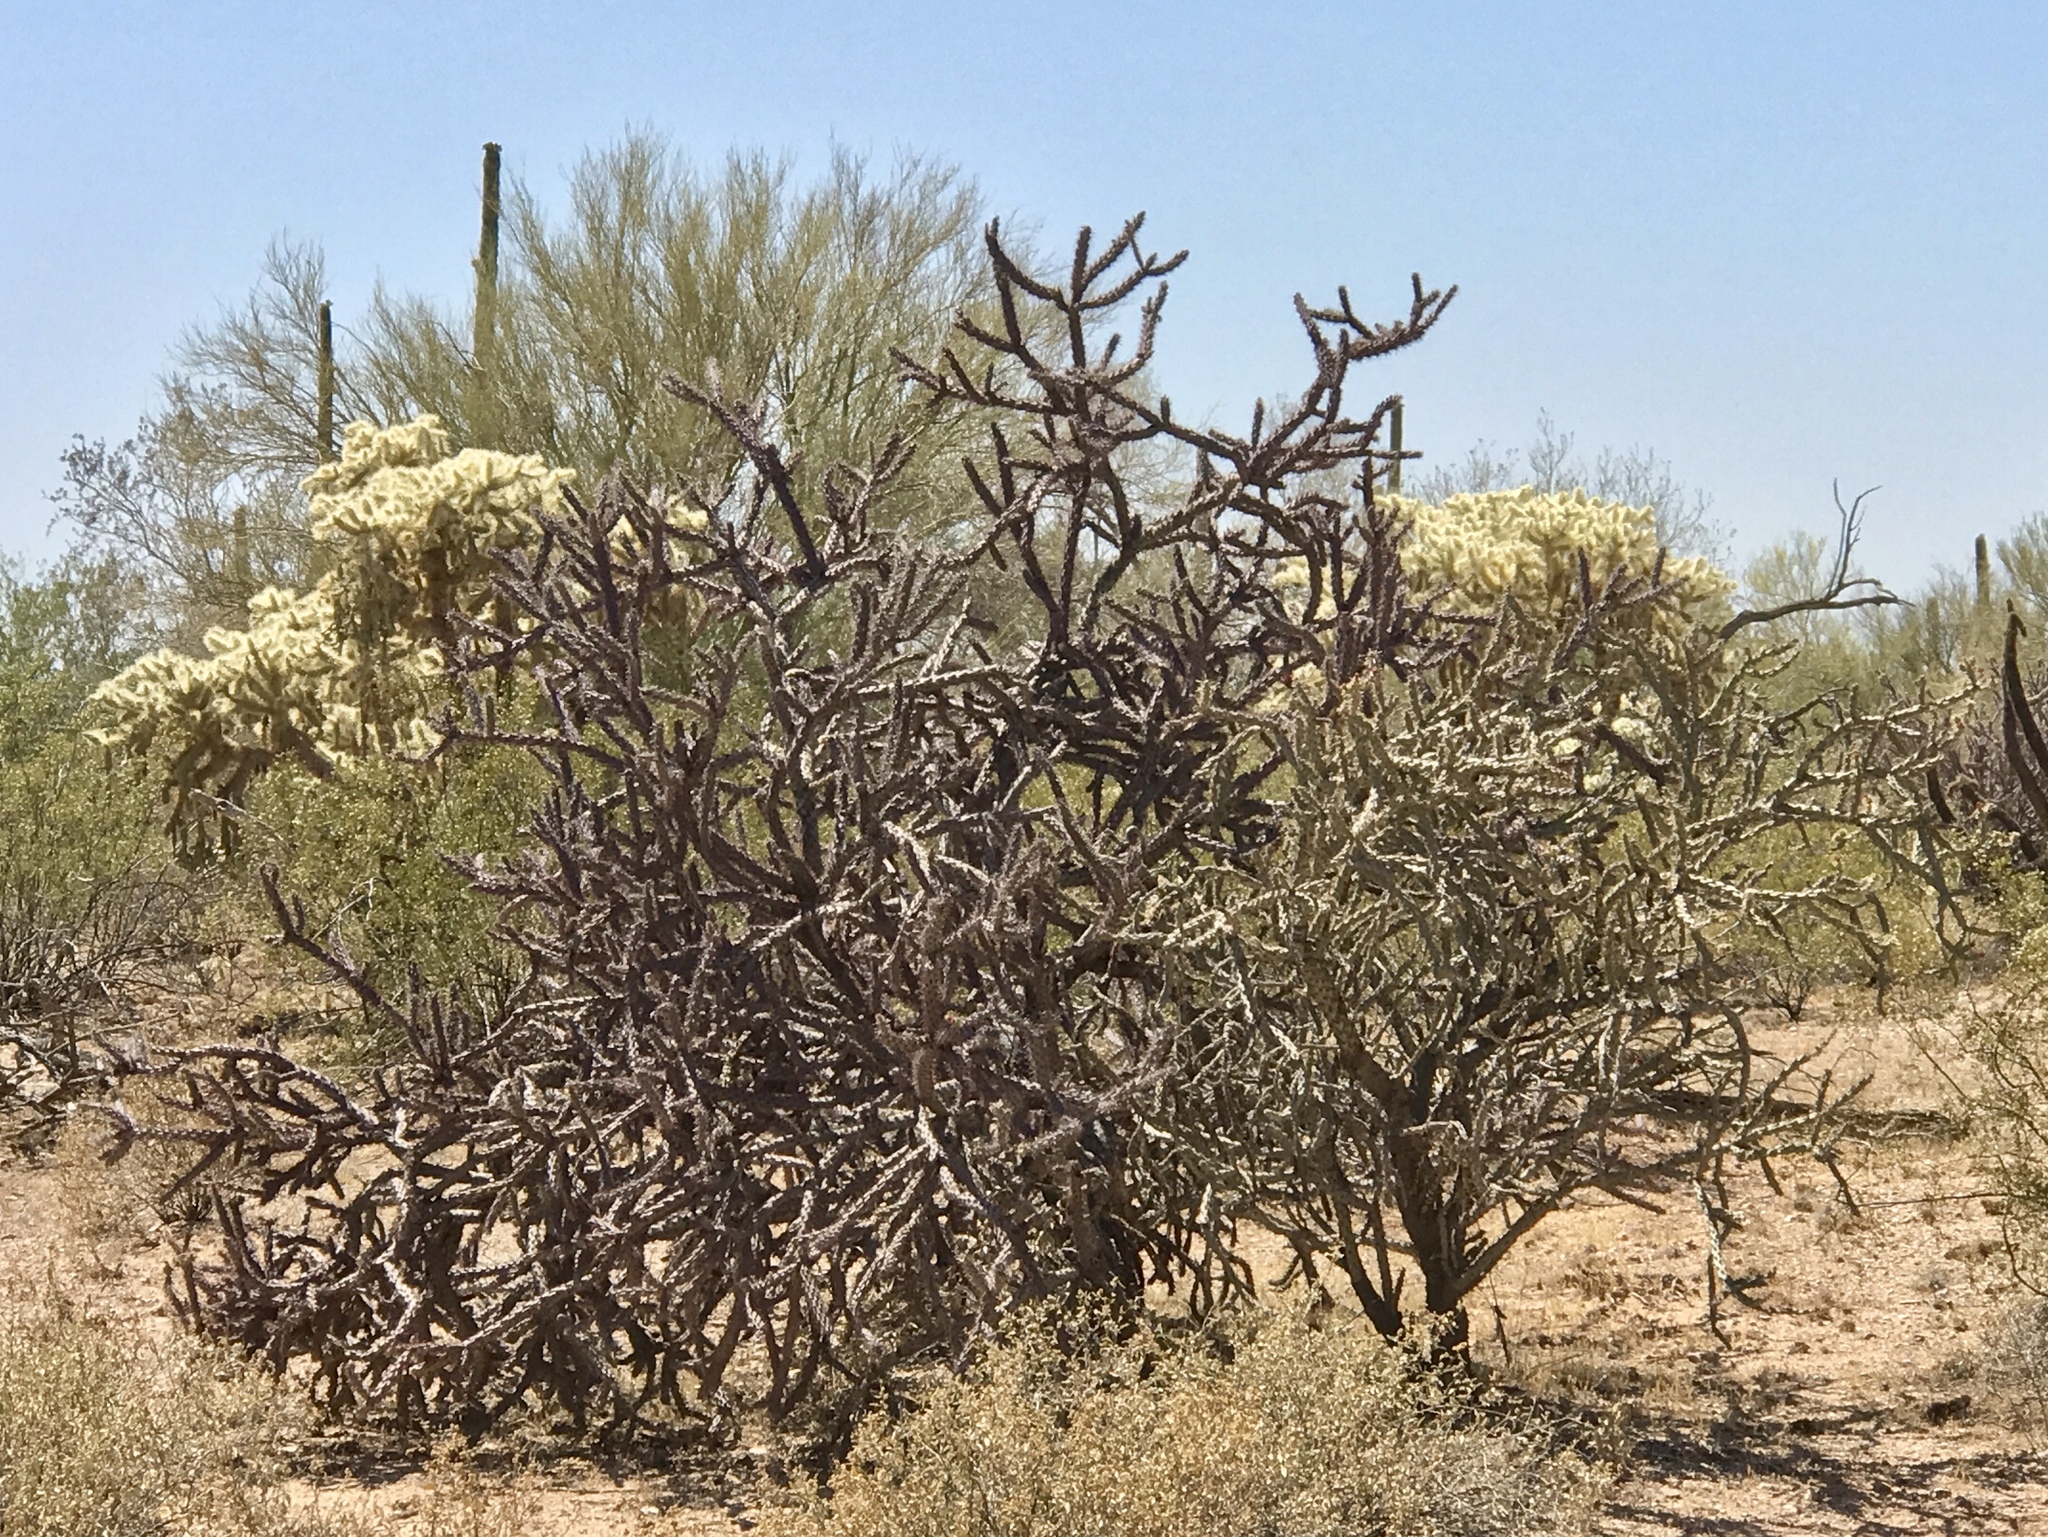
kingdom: Plantae
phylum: Tracheophyta
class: Magnoliopsida
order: Caryophyllales
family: Cactaceae
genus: Cylindropuntia
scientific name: Cylindropuntia thurberi
